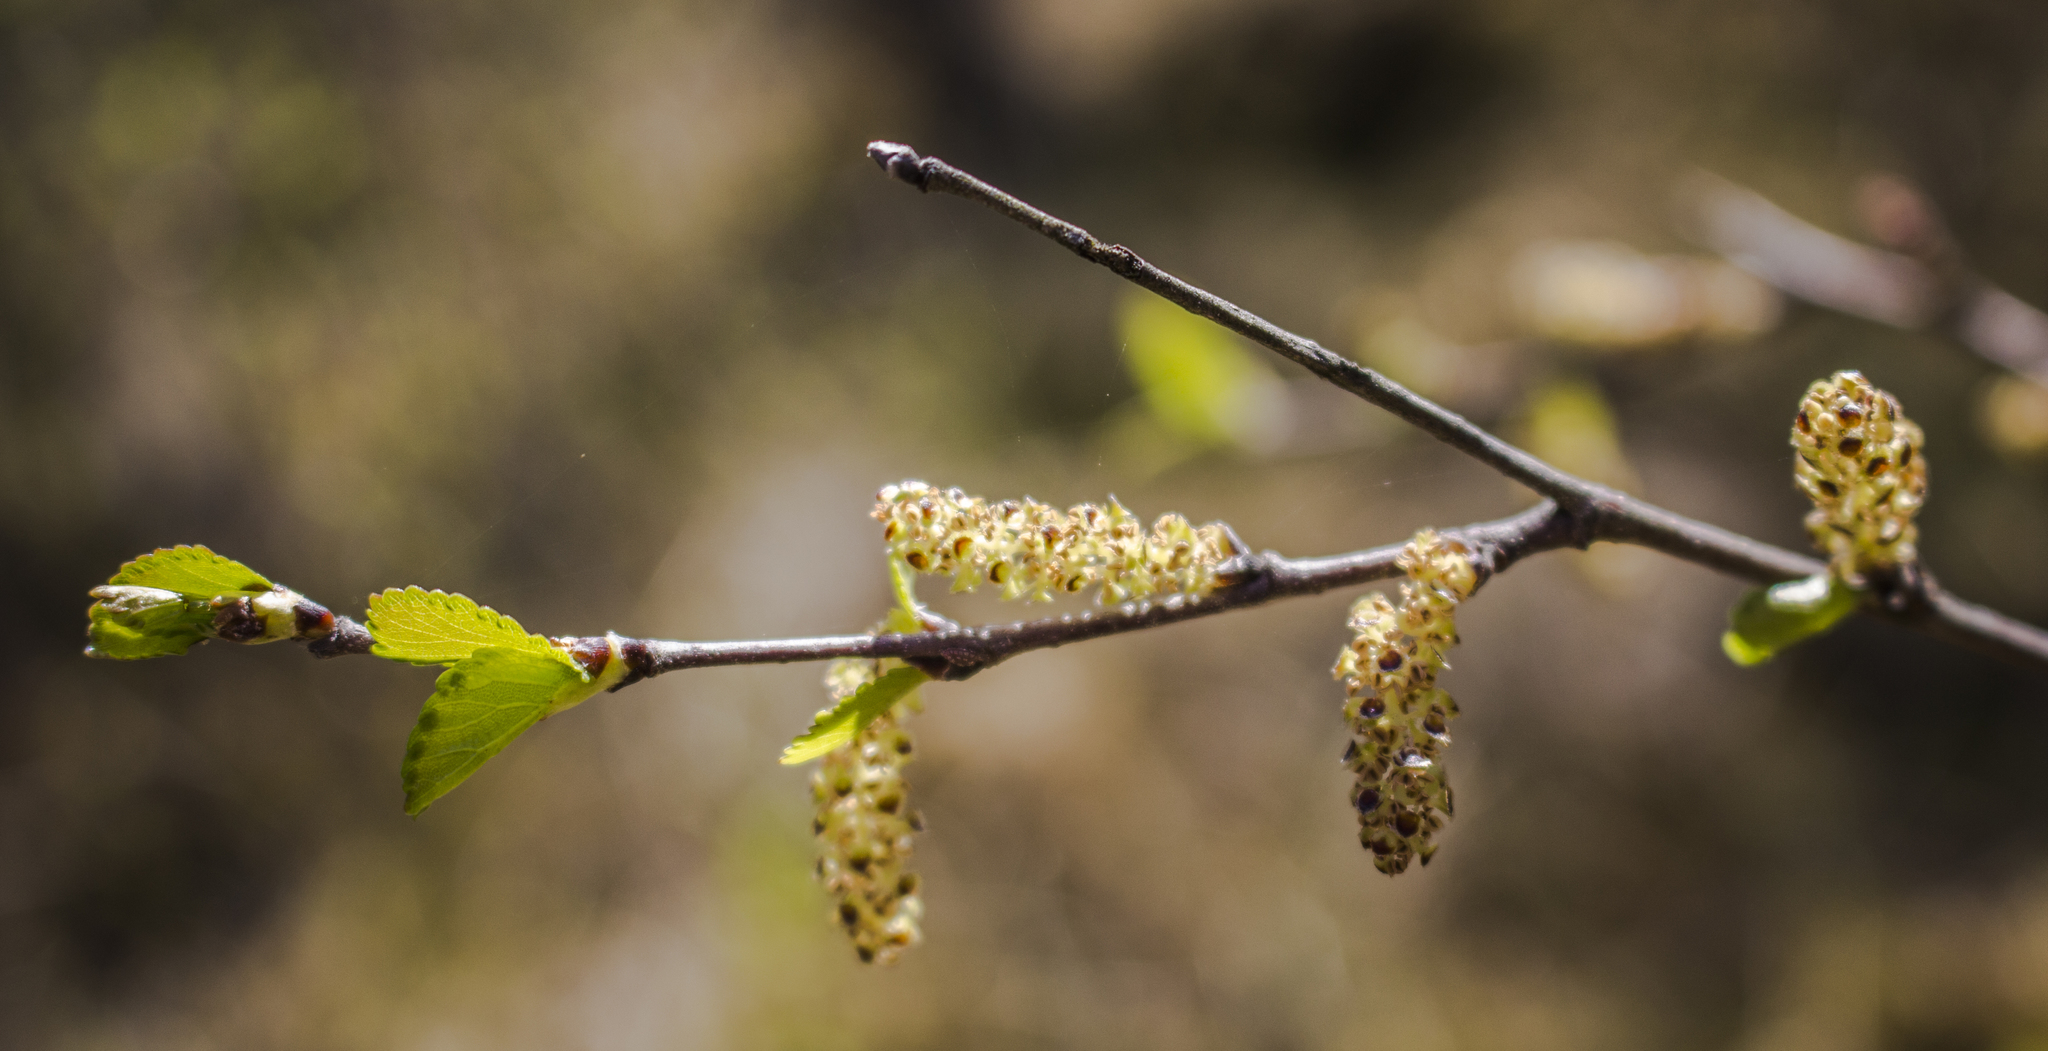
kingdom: Plantae
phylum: Tracheophyta
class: Magnoliopsida
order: Fagales
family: Betulaceae
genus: Betula
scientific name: Betula pumila
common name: Bog birch
